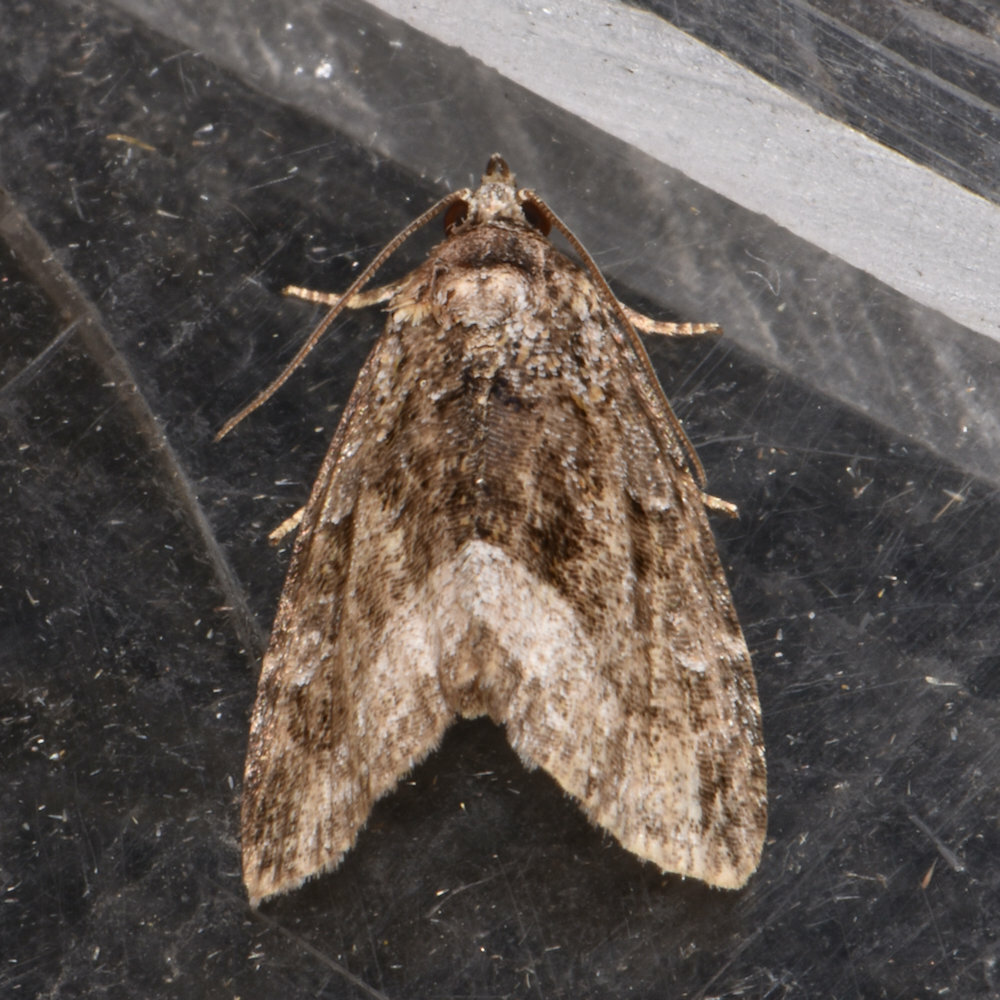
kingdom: Animalia
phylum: Arthropoda
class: Insecta
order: Lepidoptera
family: Noctuidae
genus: Protodeltote
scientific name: Protodeltote muscosula
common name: Large mossy glyph
